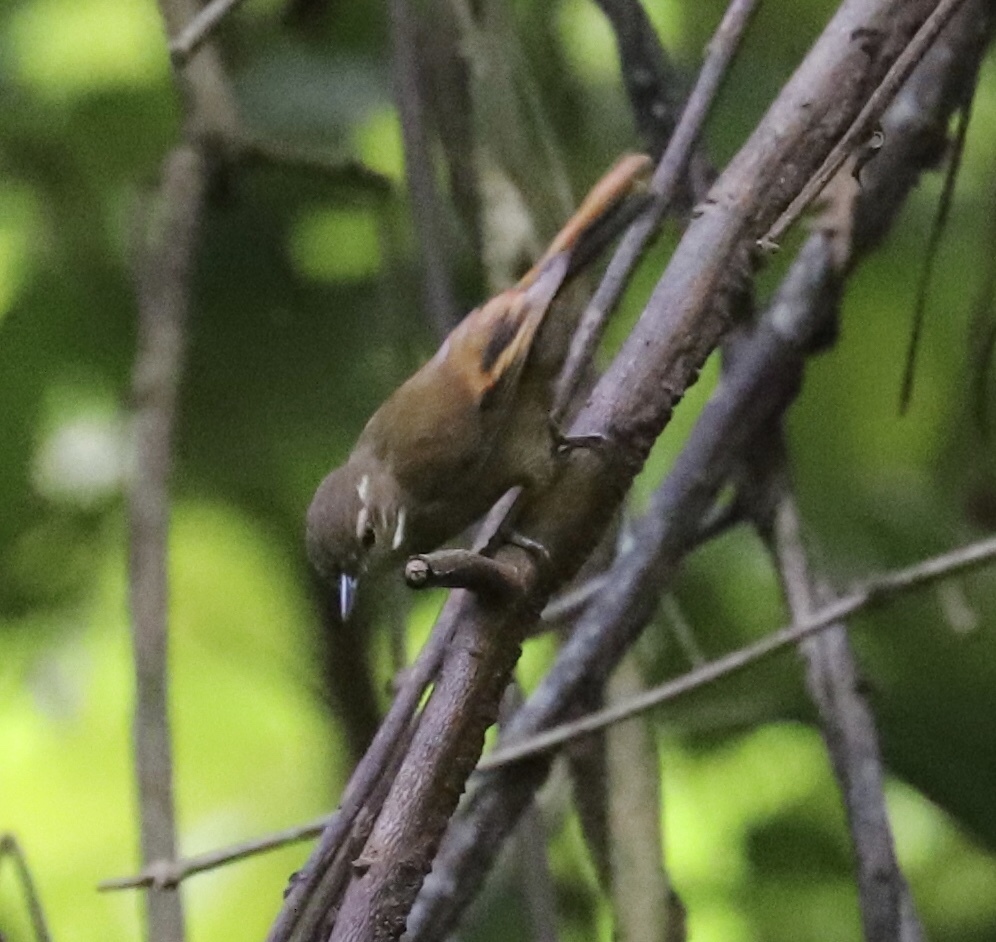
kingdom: Animalia
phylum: Chordata
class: Aves
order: Passeriformes
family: Furnariidae
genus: Xenops
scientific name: Xenops minutus
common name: Plain xenops
